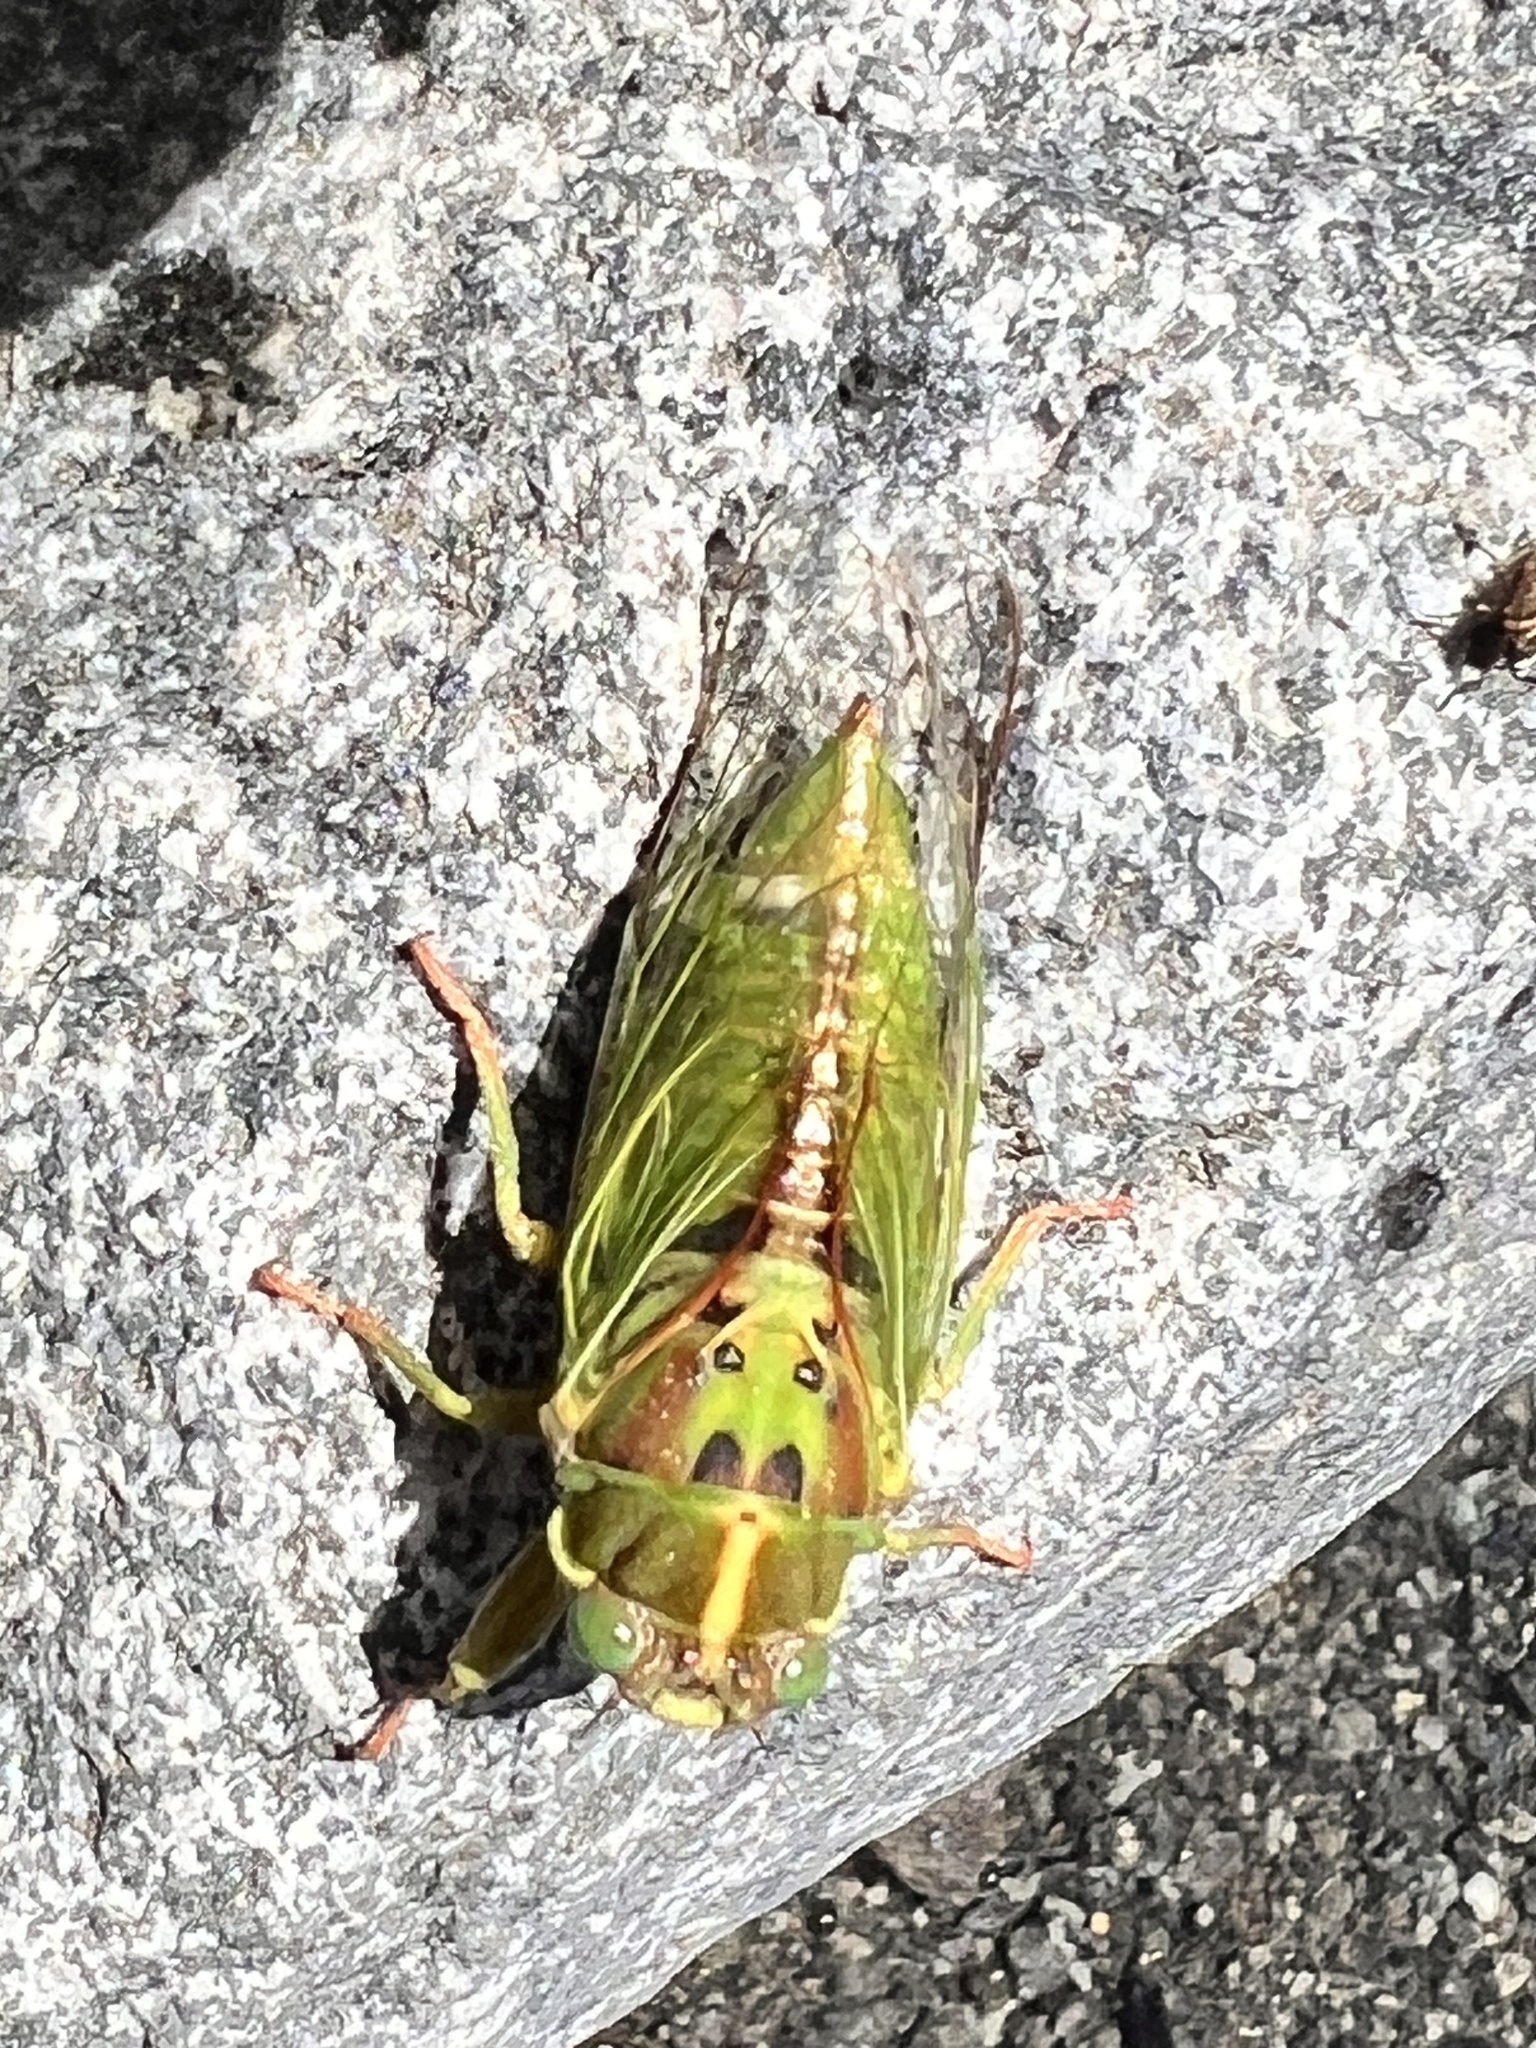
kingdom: Animalia
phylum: Arthropoda
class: Insecta
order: Hemiptera
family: Cicadidae
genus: Kikihia
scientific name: Kikihia rosea
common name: Murihiku cicada
